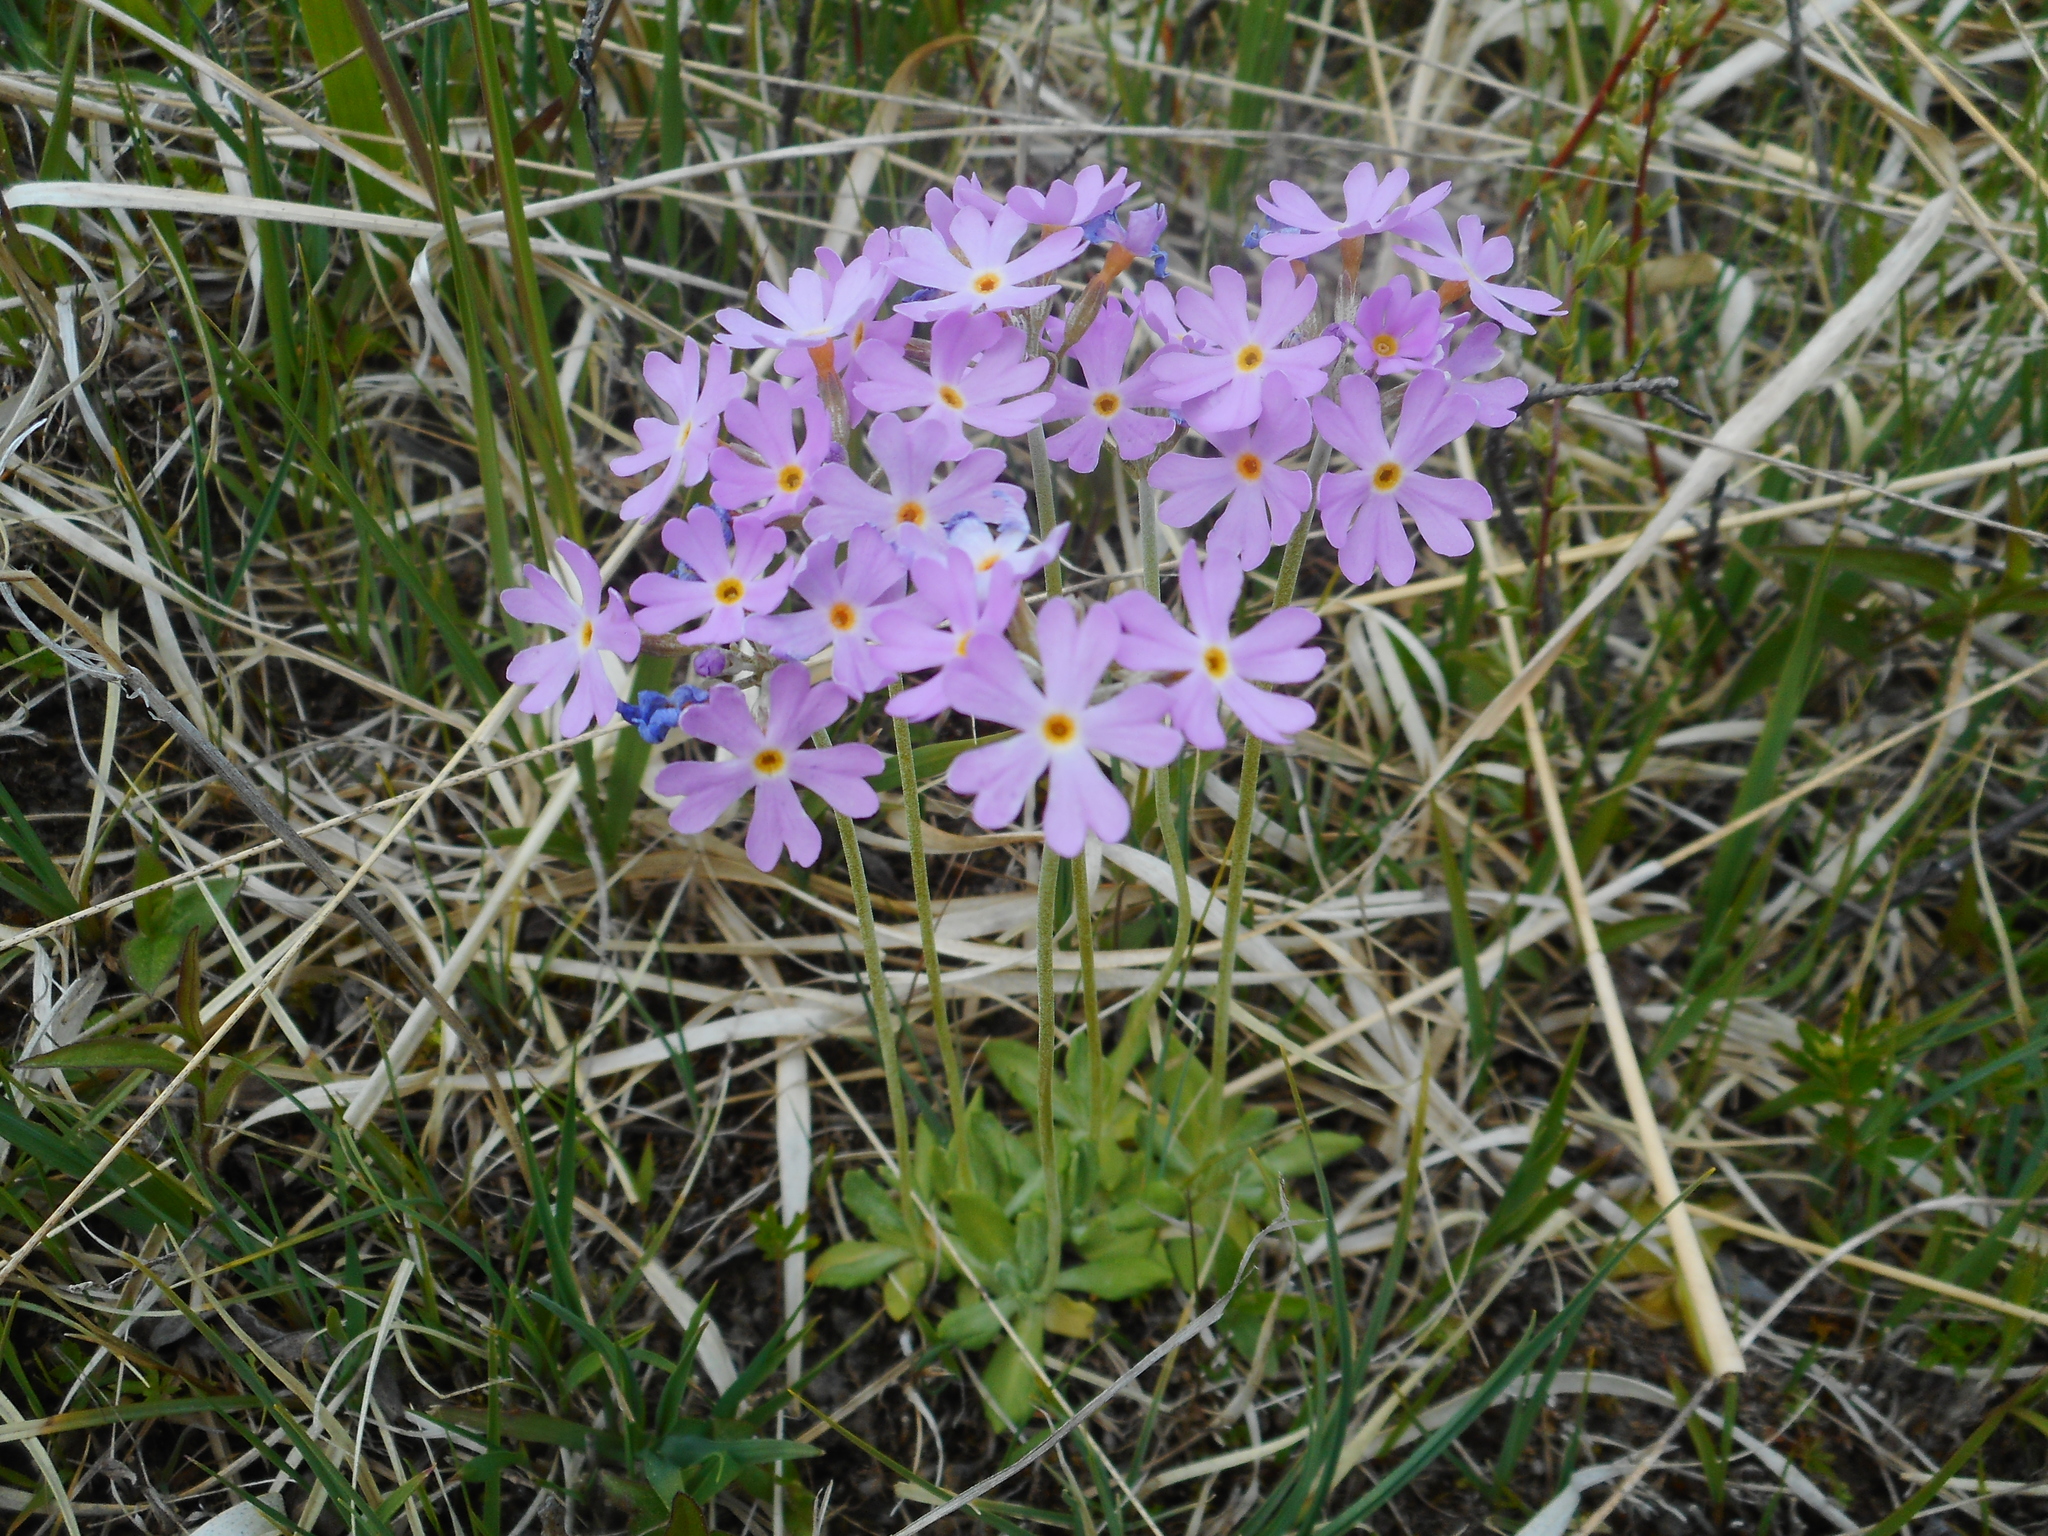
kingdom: Plantae
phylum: Tracheophyta
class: Magnoliopsida
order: Ericales
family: Primulaceae
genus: Primula
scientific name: Primula farinosa
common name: Bird's-eye primrose
